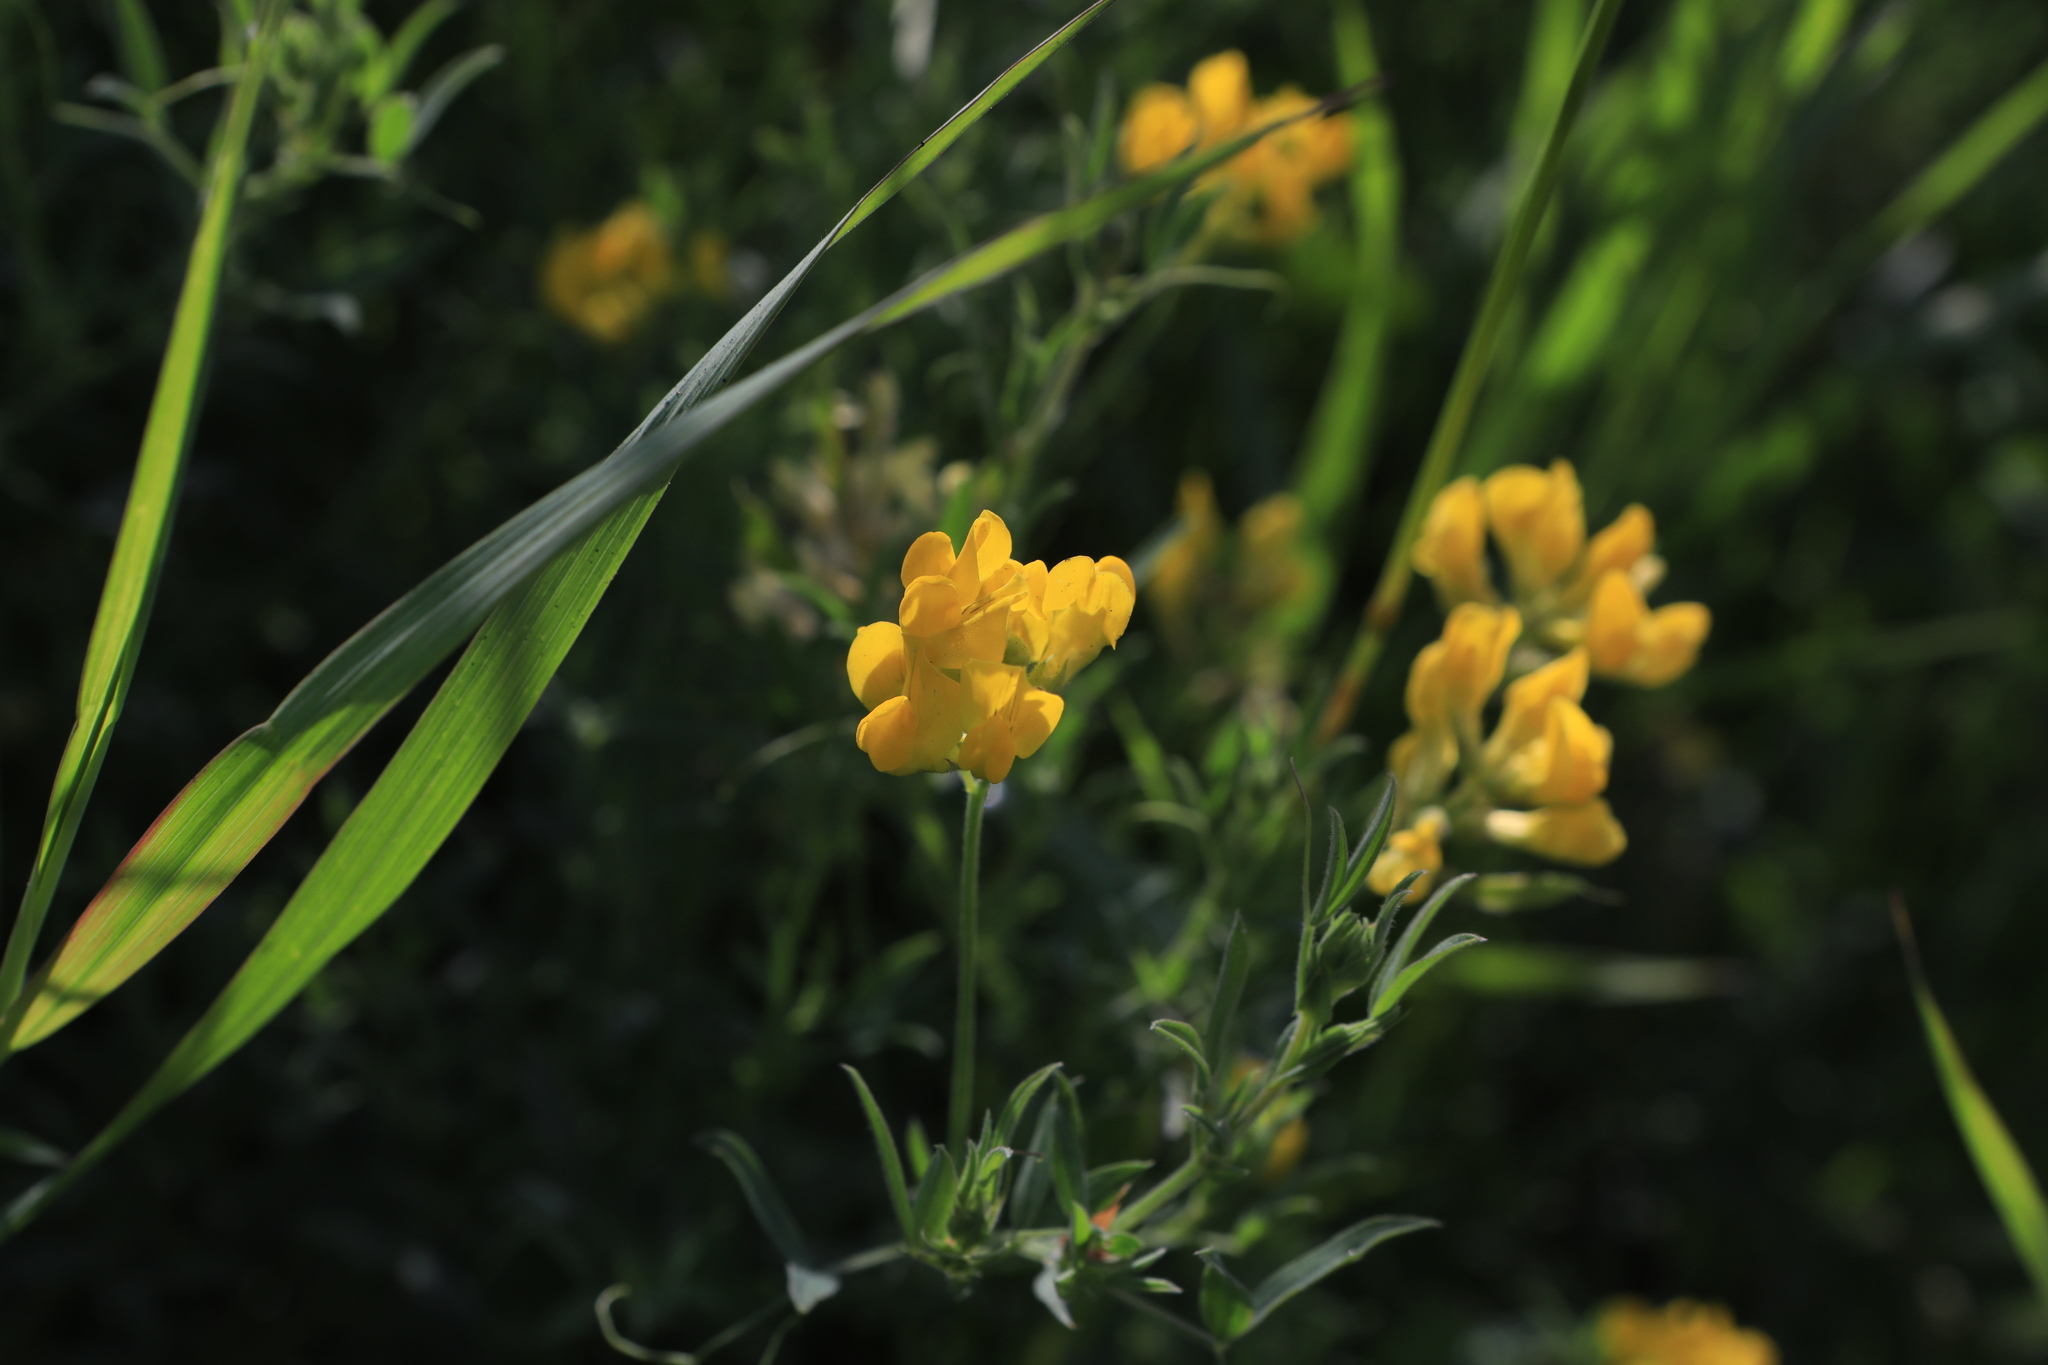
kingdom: Plantae
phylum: Tracheophyta
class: Magnoliopsida
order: Fabales
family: Fabaceae
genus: Lathyrus
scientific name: Lathyrus pratensis
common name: Meadow vetchling
